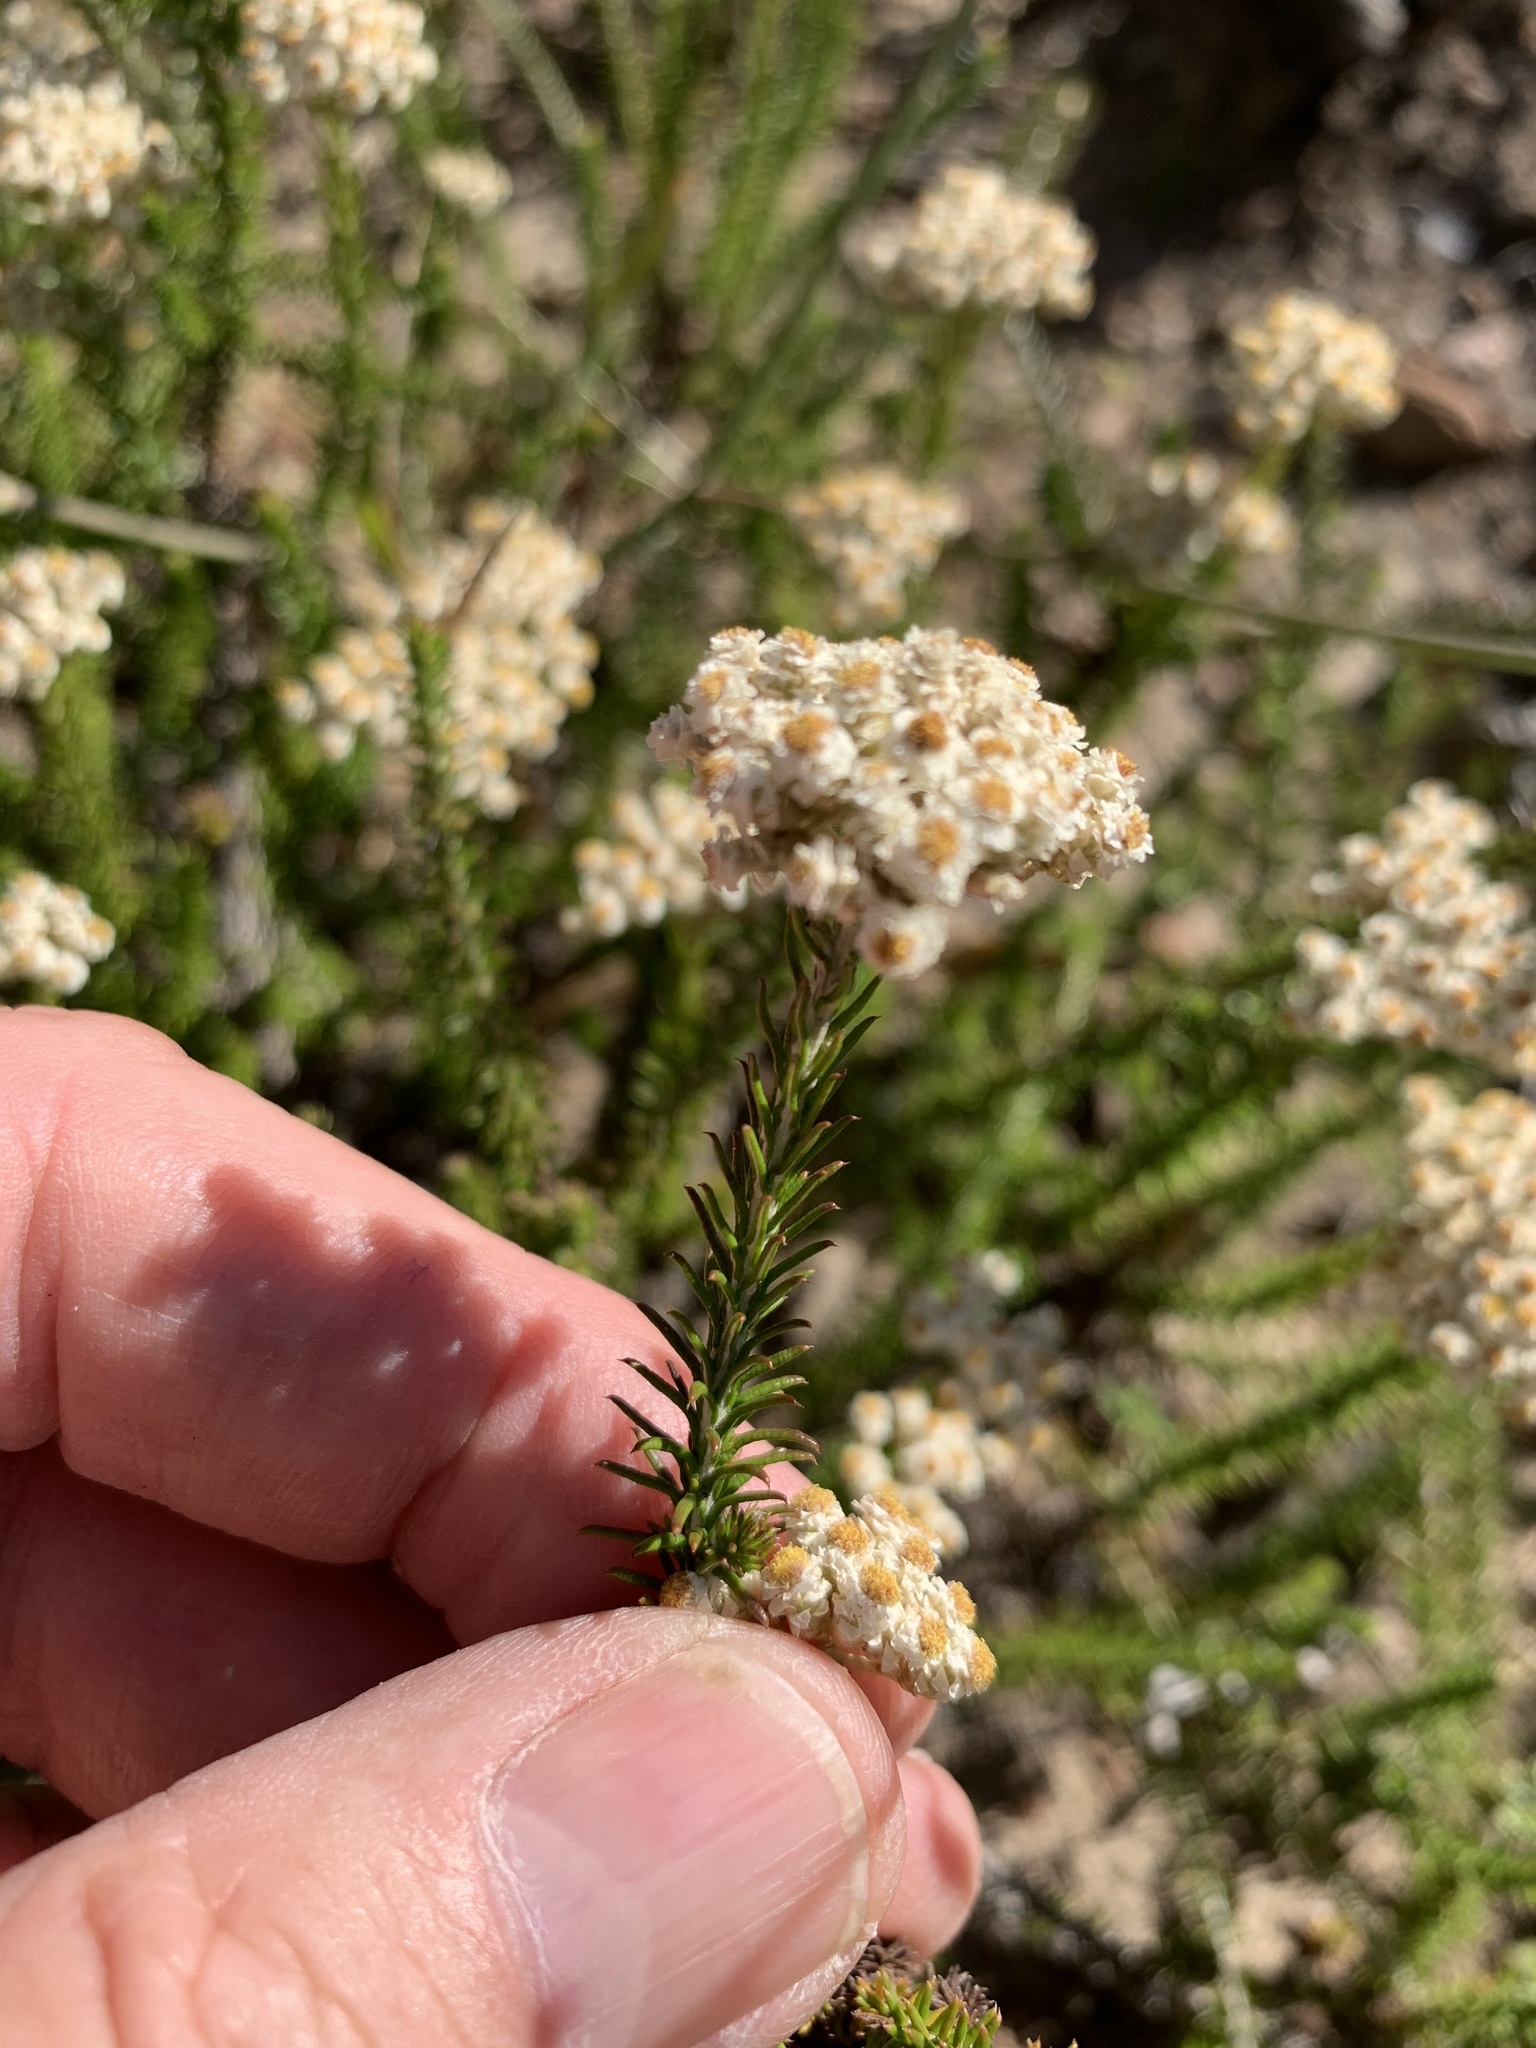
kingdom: Plantae
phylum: Tracheophyta
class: Magnoliopsida
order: Asterales
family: Asteraceae
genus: Helichrysum
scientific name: Helichrysum teretifolium
